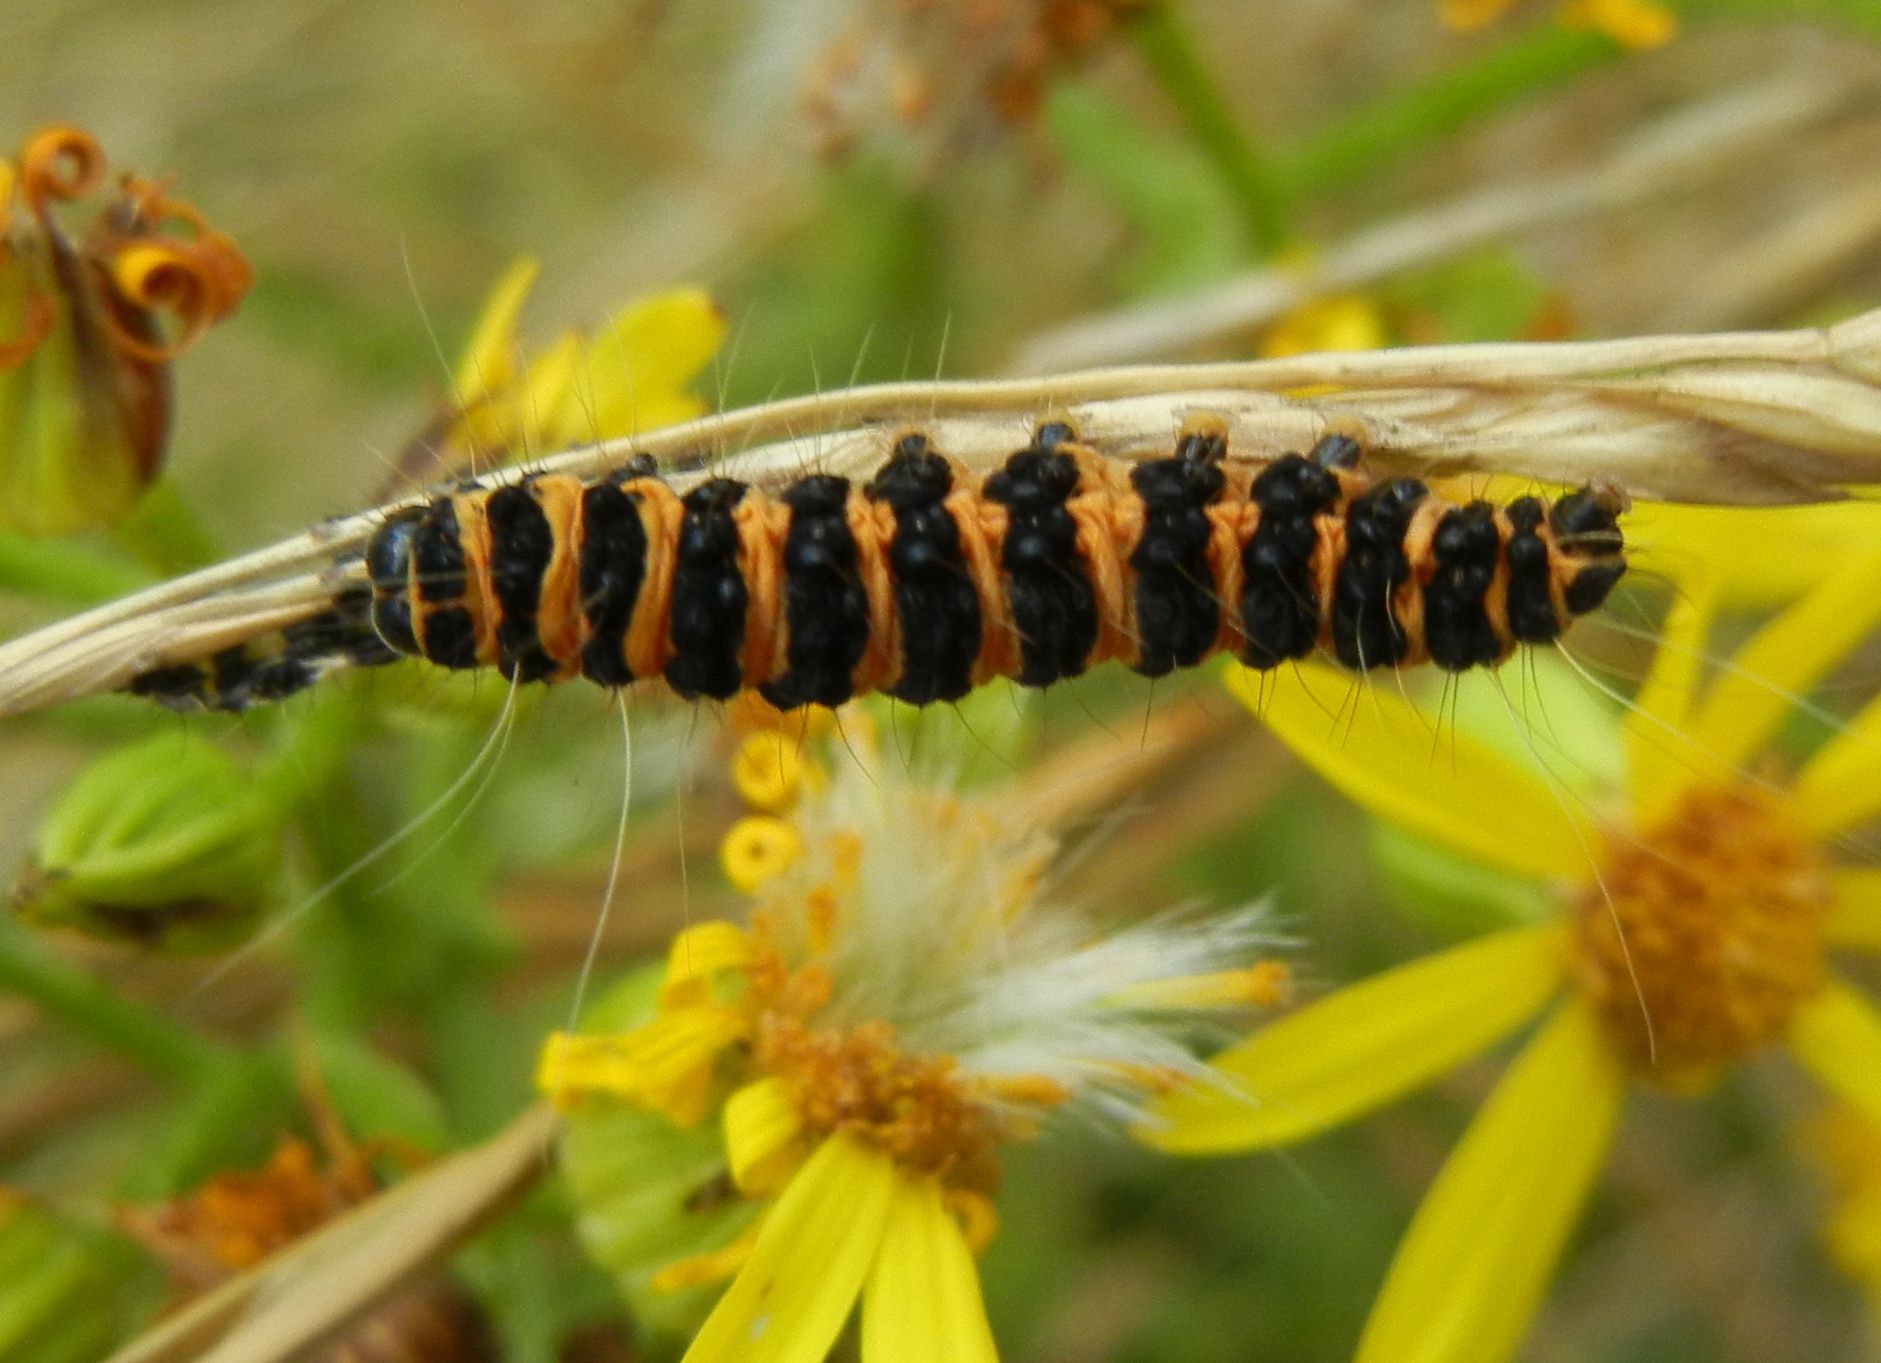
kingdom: Animalia
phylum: Arthropoda
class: Insecta
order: Lepidoptera
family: Erebidae
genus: Tyria
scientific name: Tyria jacobaeae
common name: Cinnabar
